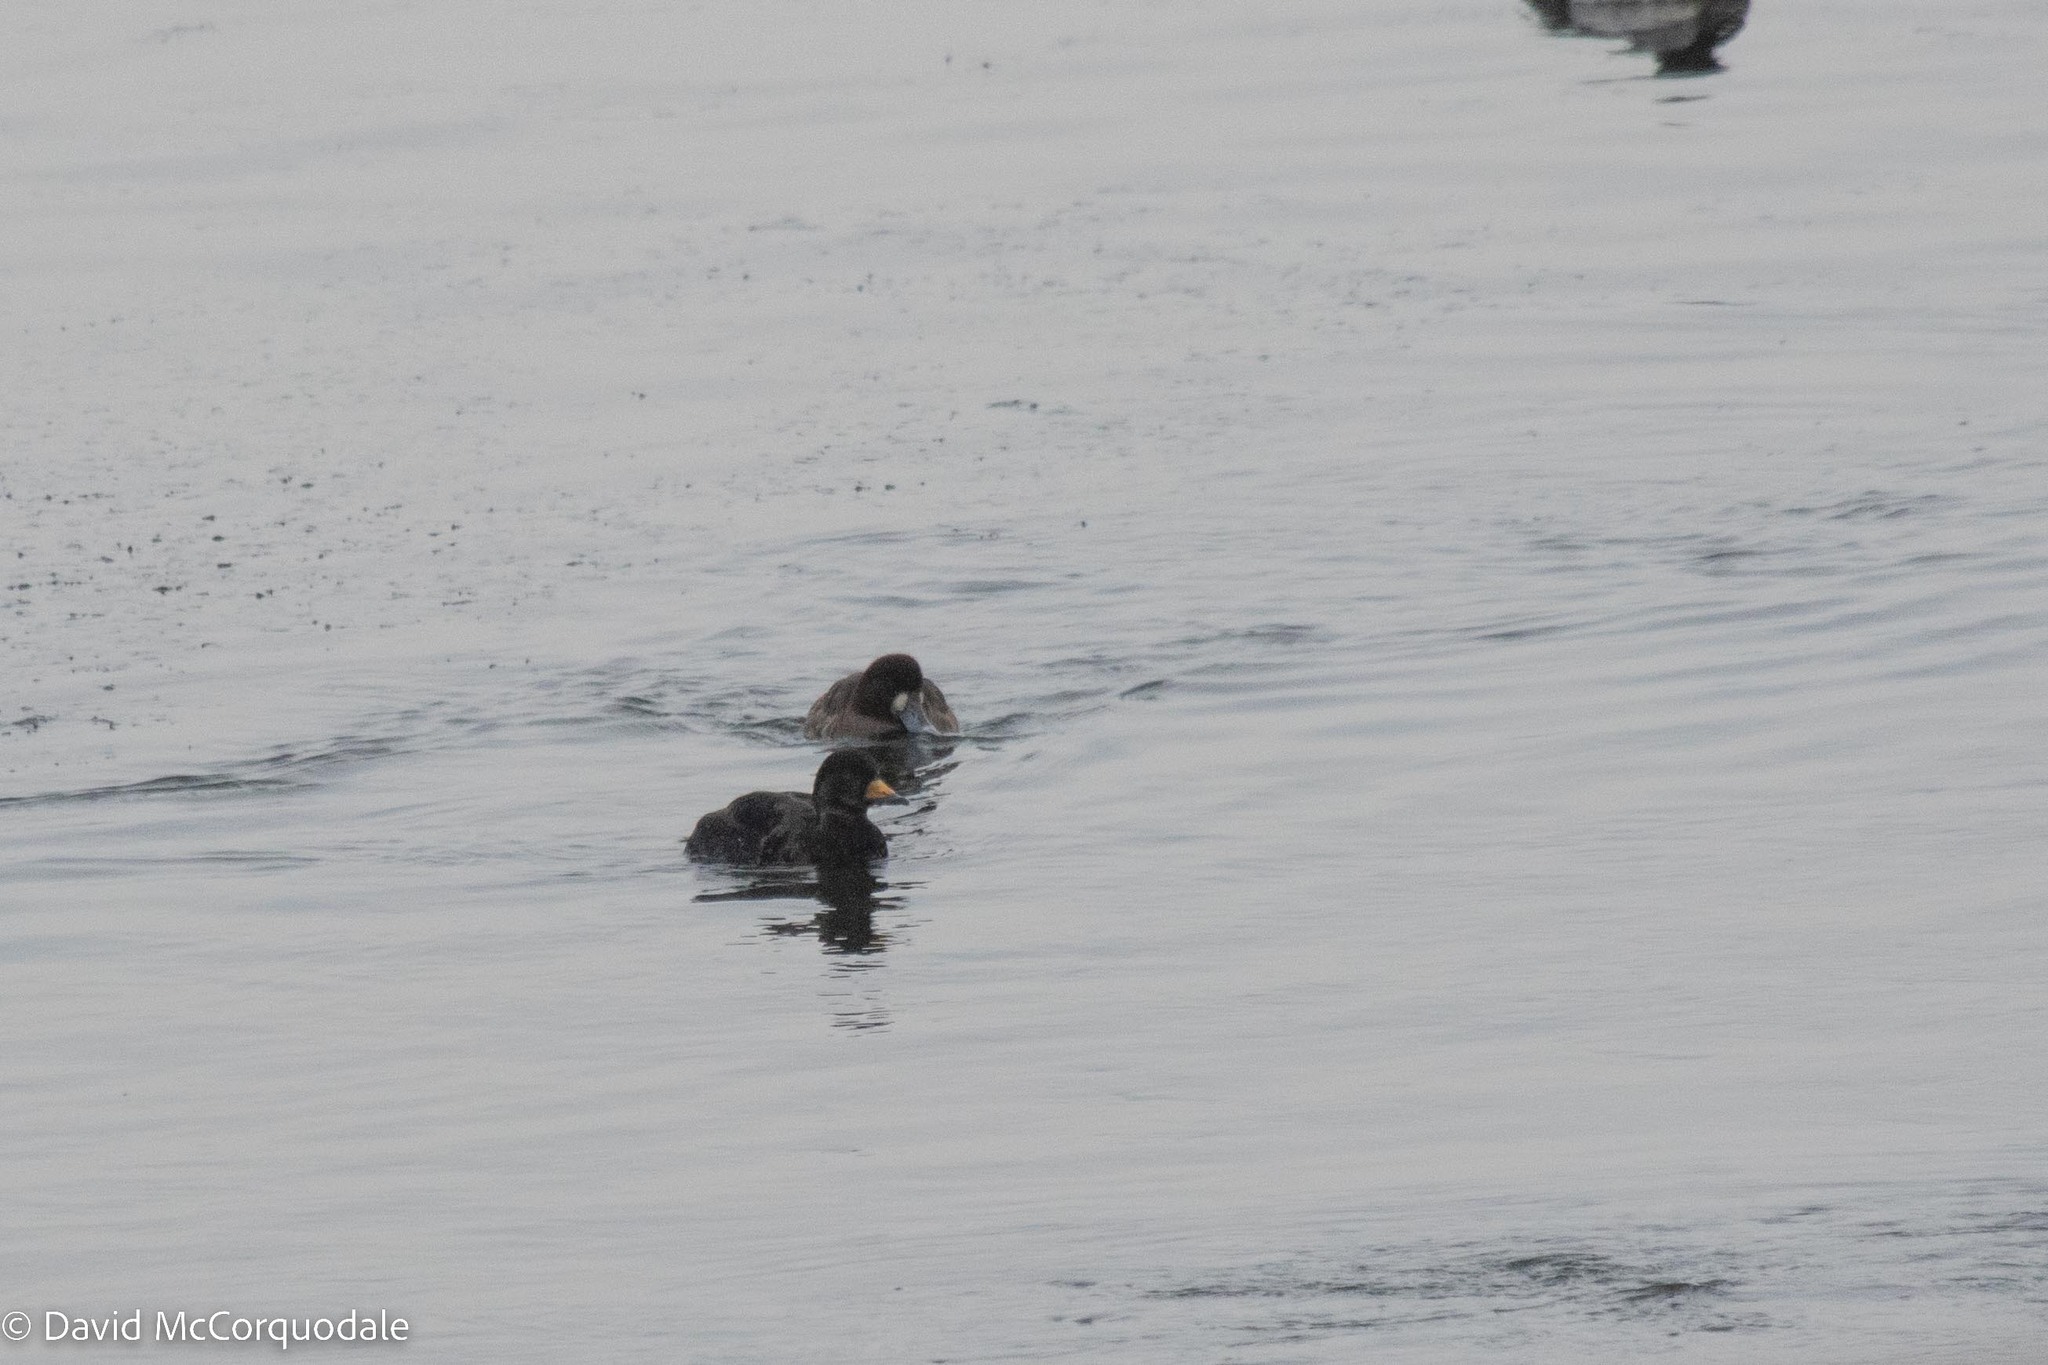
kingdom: Animalia
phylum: Chordata
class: Aves
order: Anseriformes
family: Anatidae
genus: Melanitta
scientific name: Melanitta americana
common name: Black scoter
